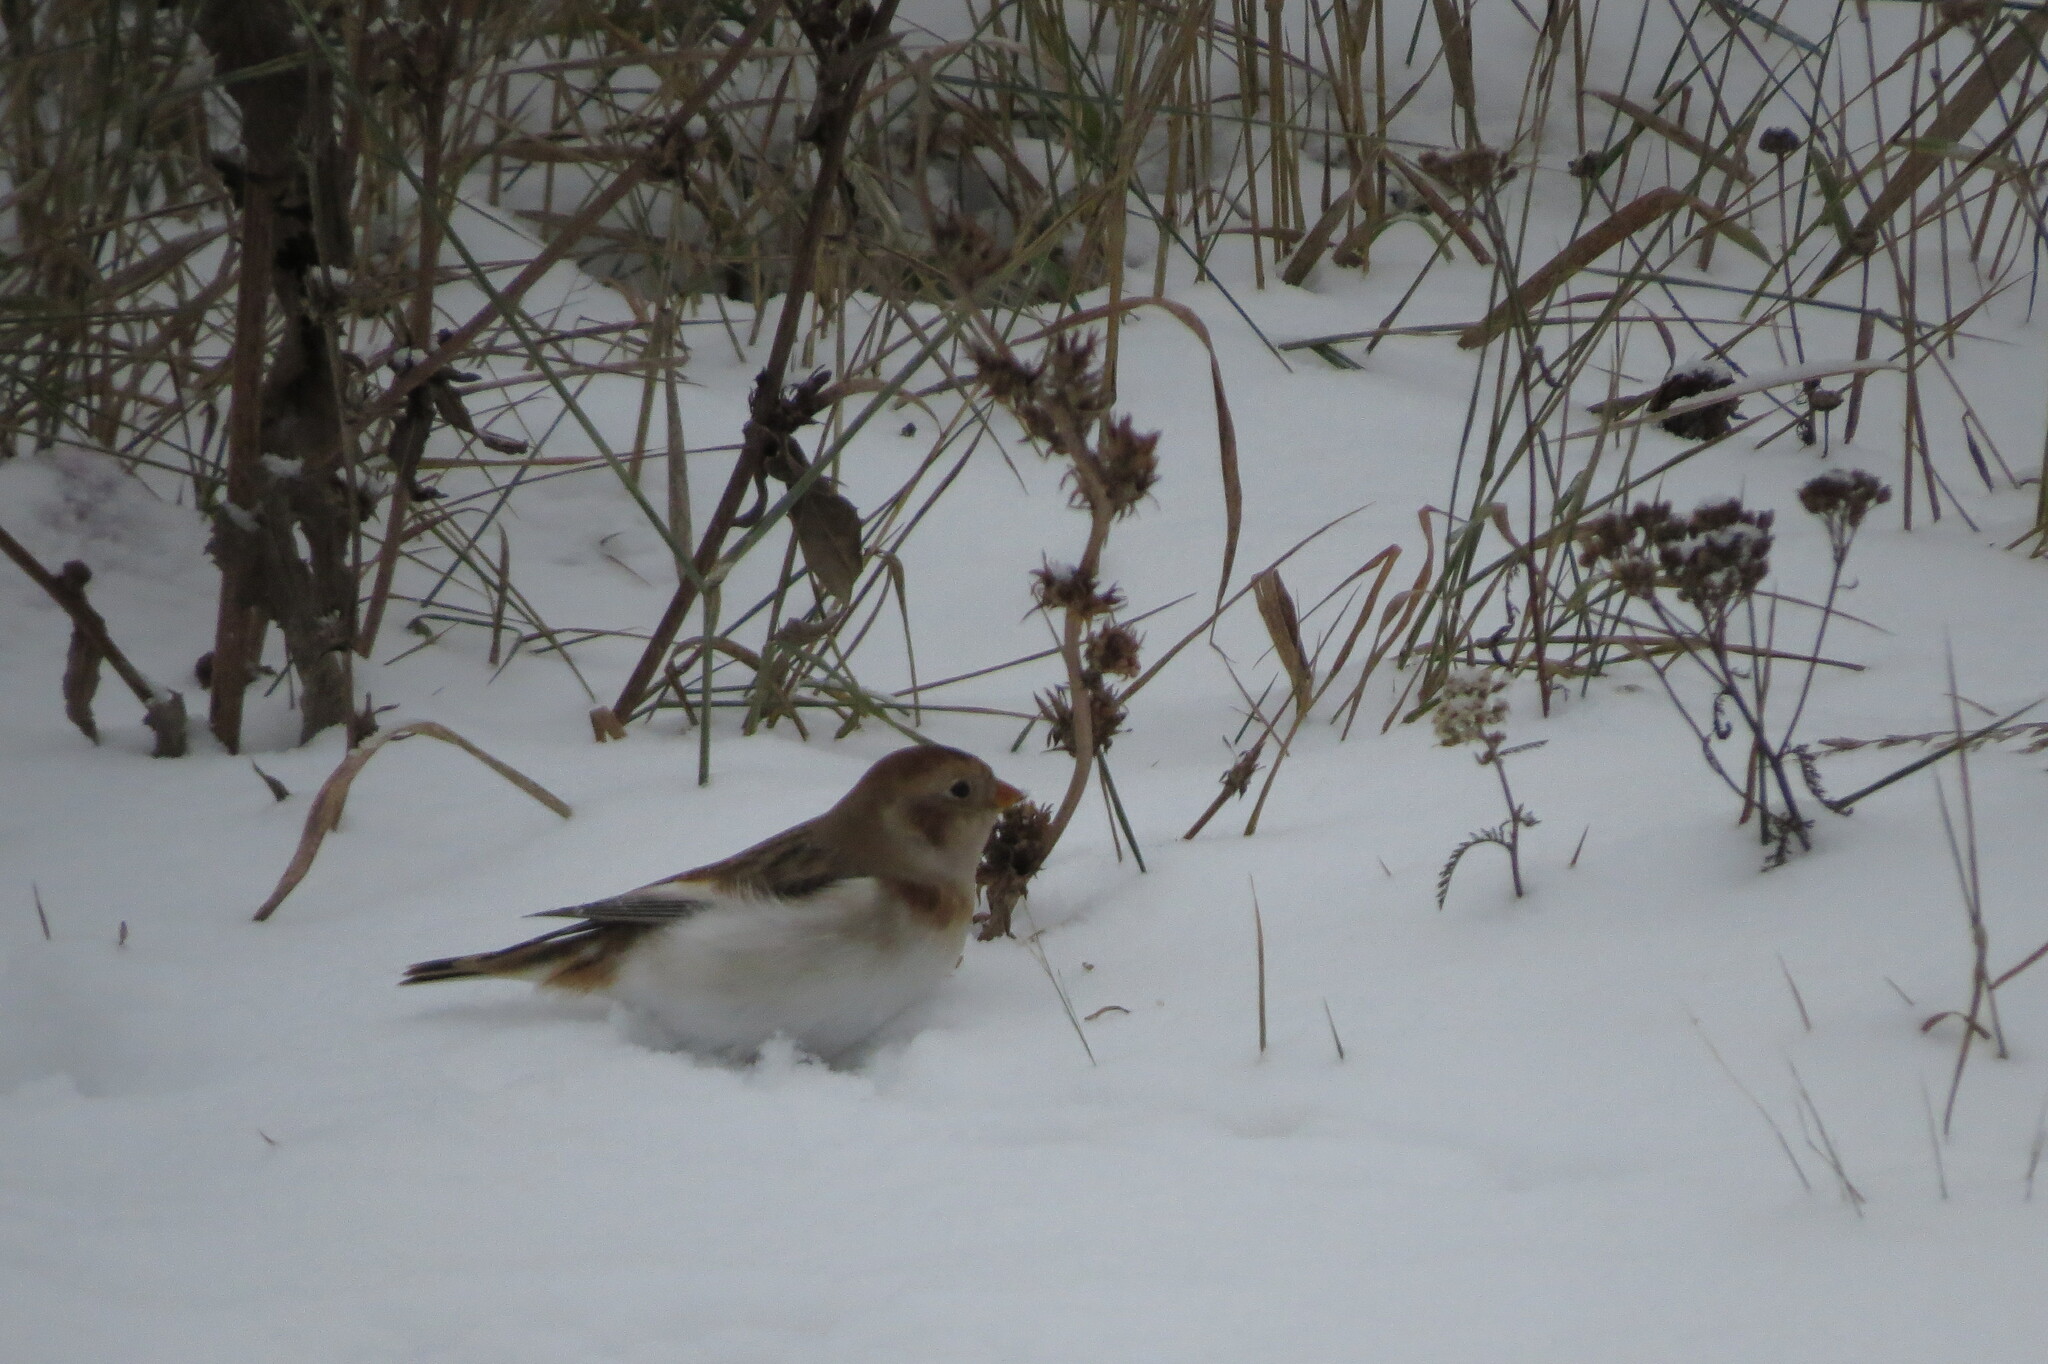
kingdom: Animalia
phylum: Chordata
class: Aves
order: Passeriformes
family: Calcariidae
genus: Plectrophenax
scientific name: Plectrophenax nivalis
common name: Snow bunting
